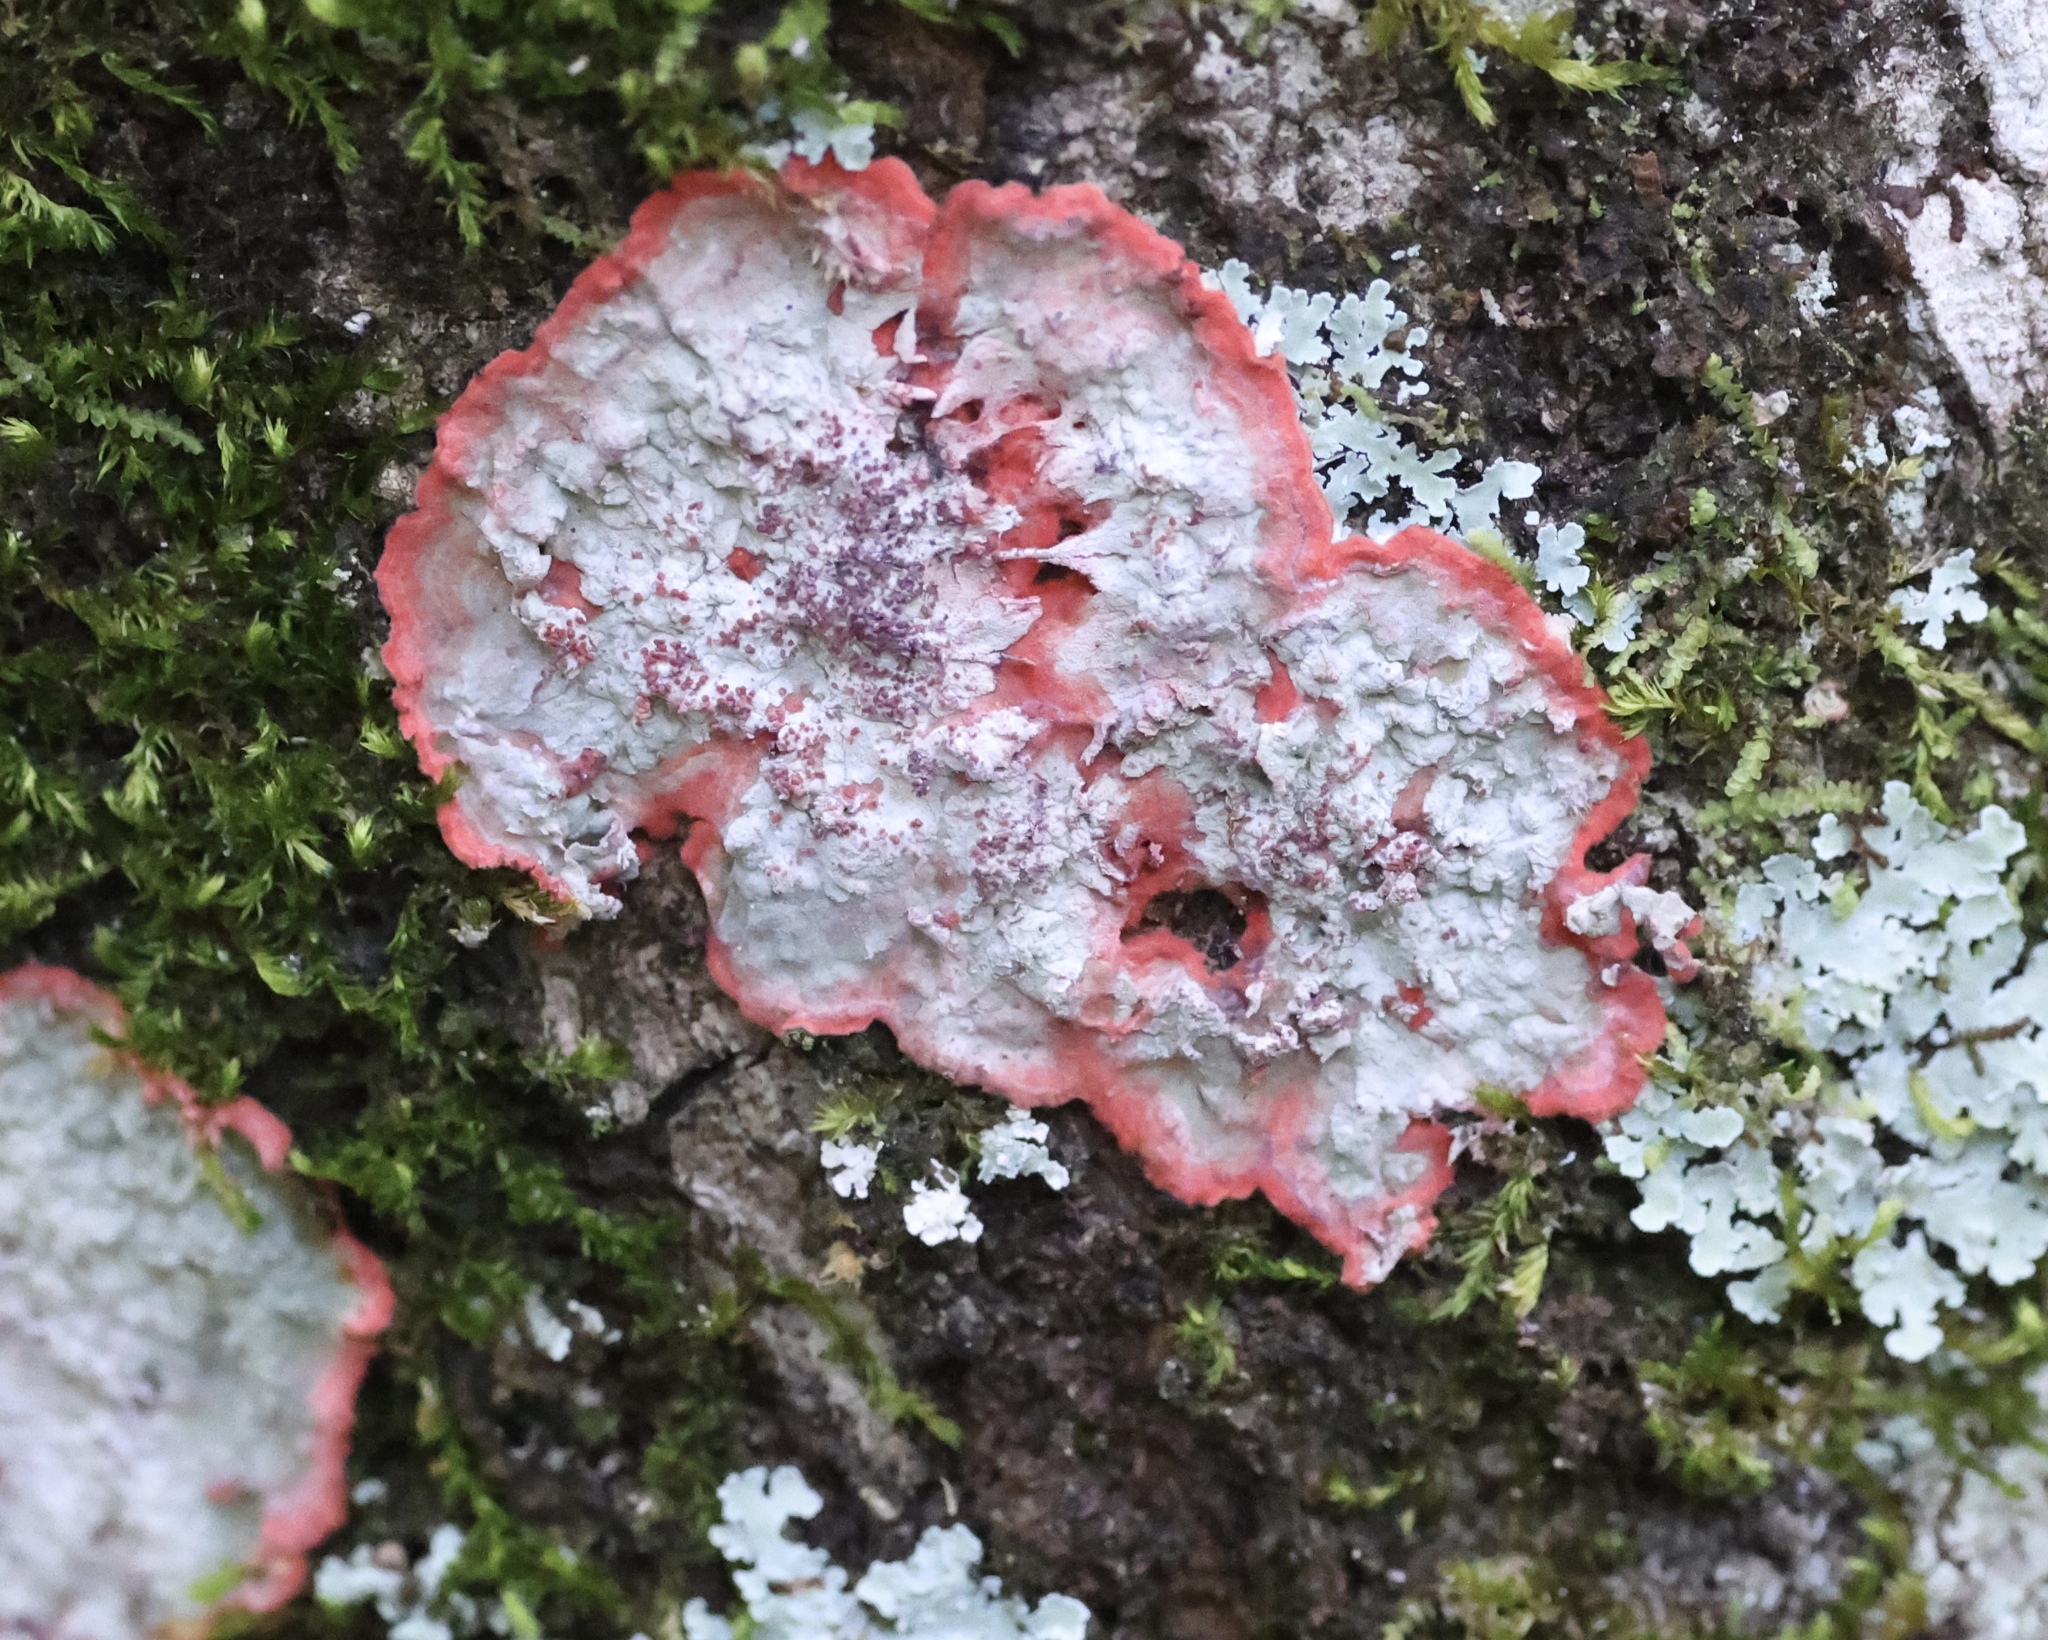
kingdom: Fungi
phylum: Ascomycota
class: Arthoniomycetes
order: Arthoniales
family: Arthoniaceae
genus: Herpothallon
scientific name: Herpothallon rubrocinctum
